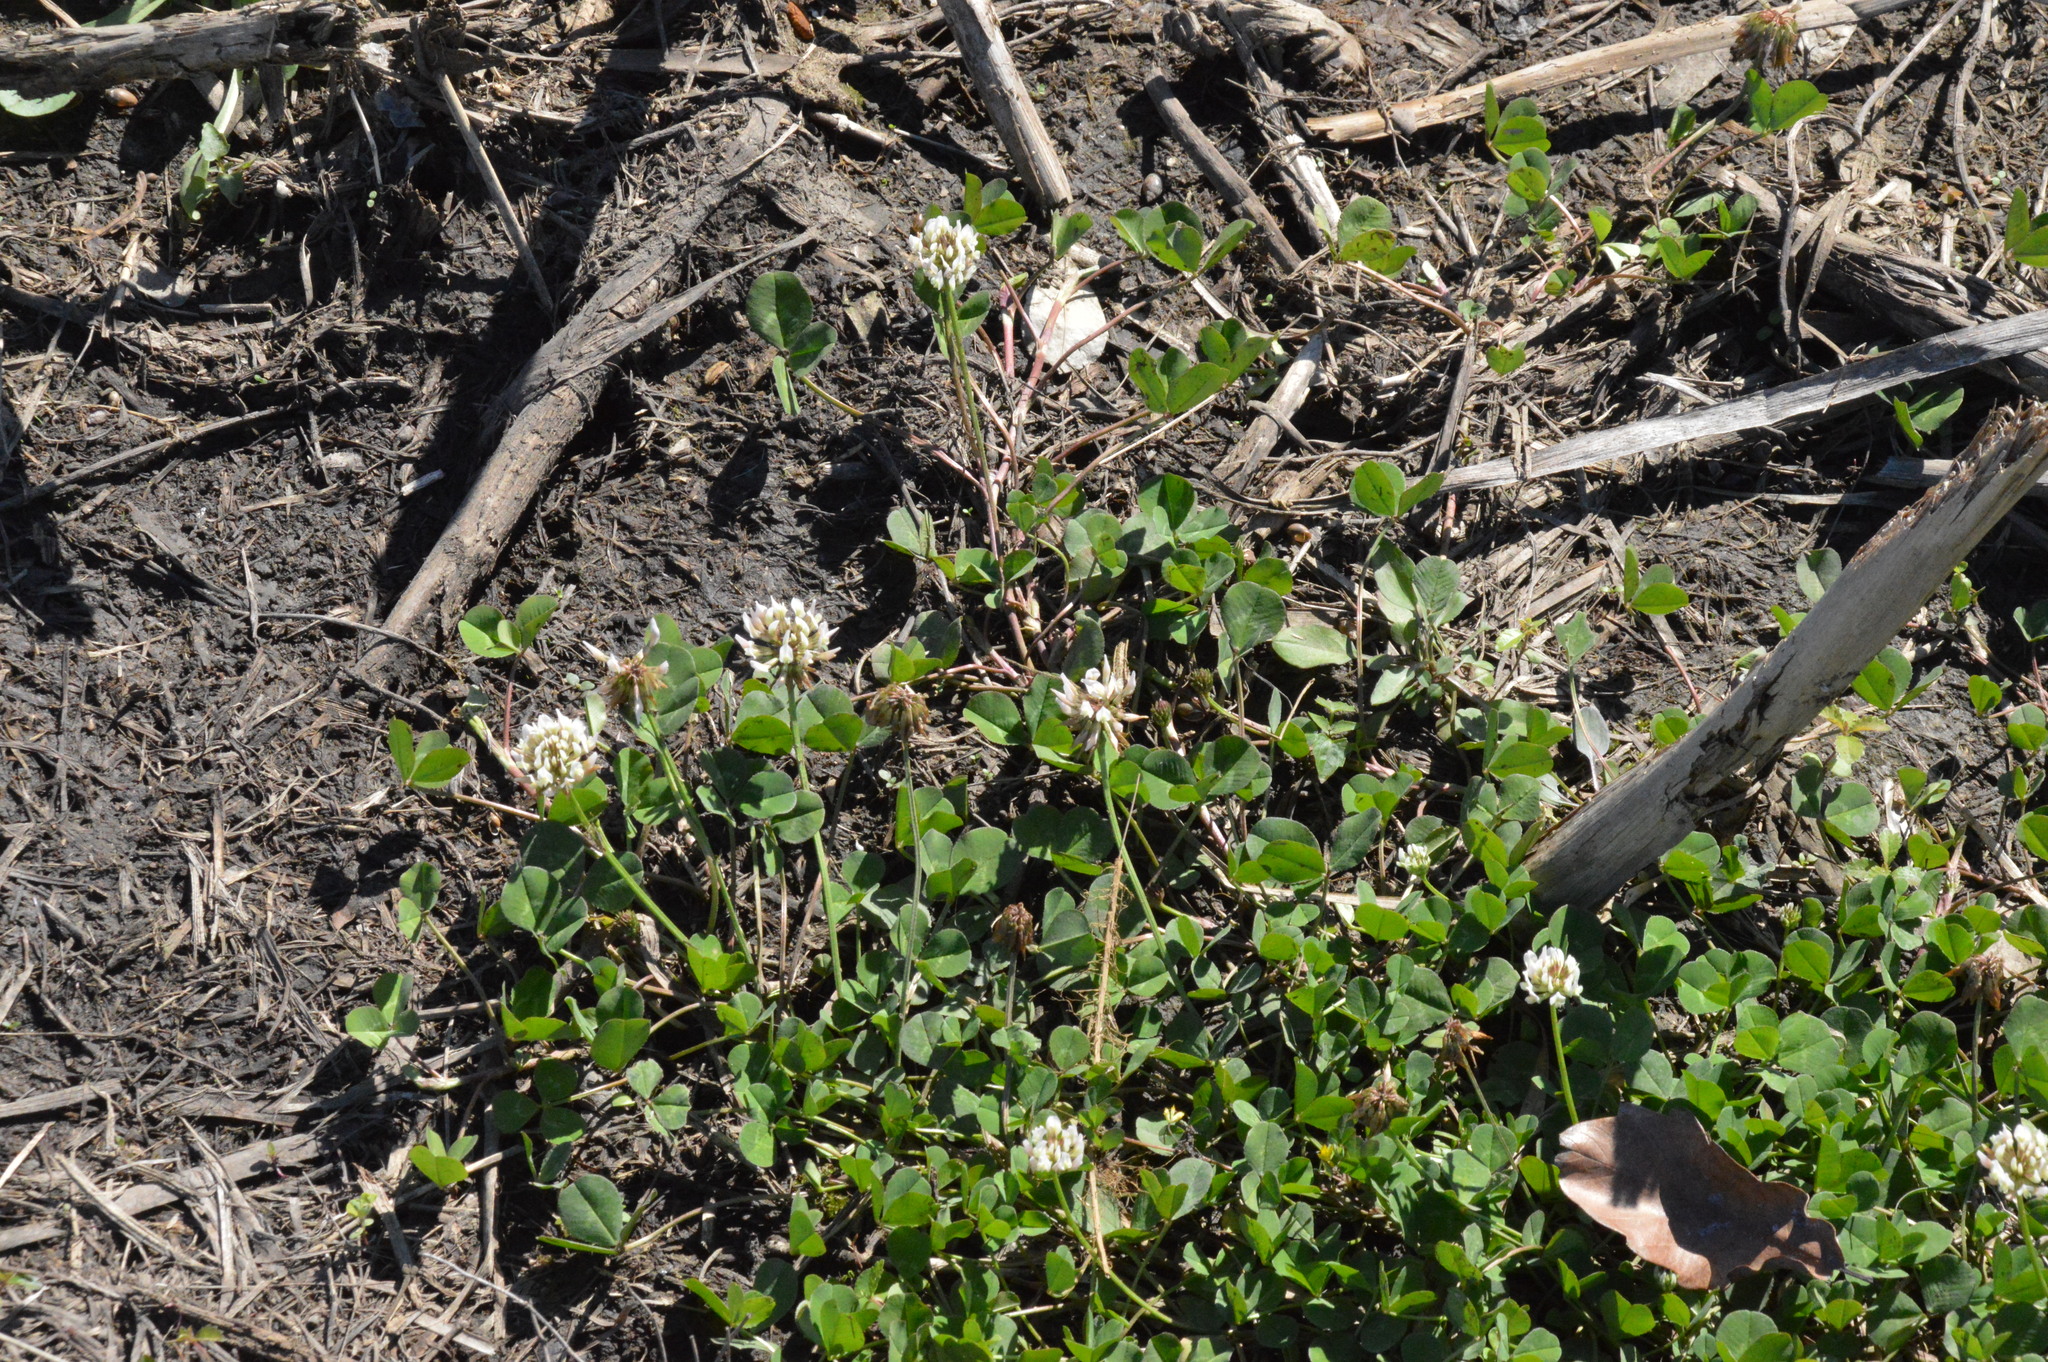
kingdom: Plantae
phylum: Tracheophyta
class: Magnoliopsida
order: Fabales
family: Fabaceae
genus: Trifolium
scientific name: Trifolium repens
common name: White clover
